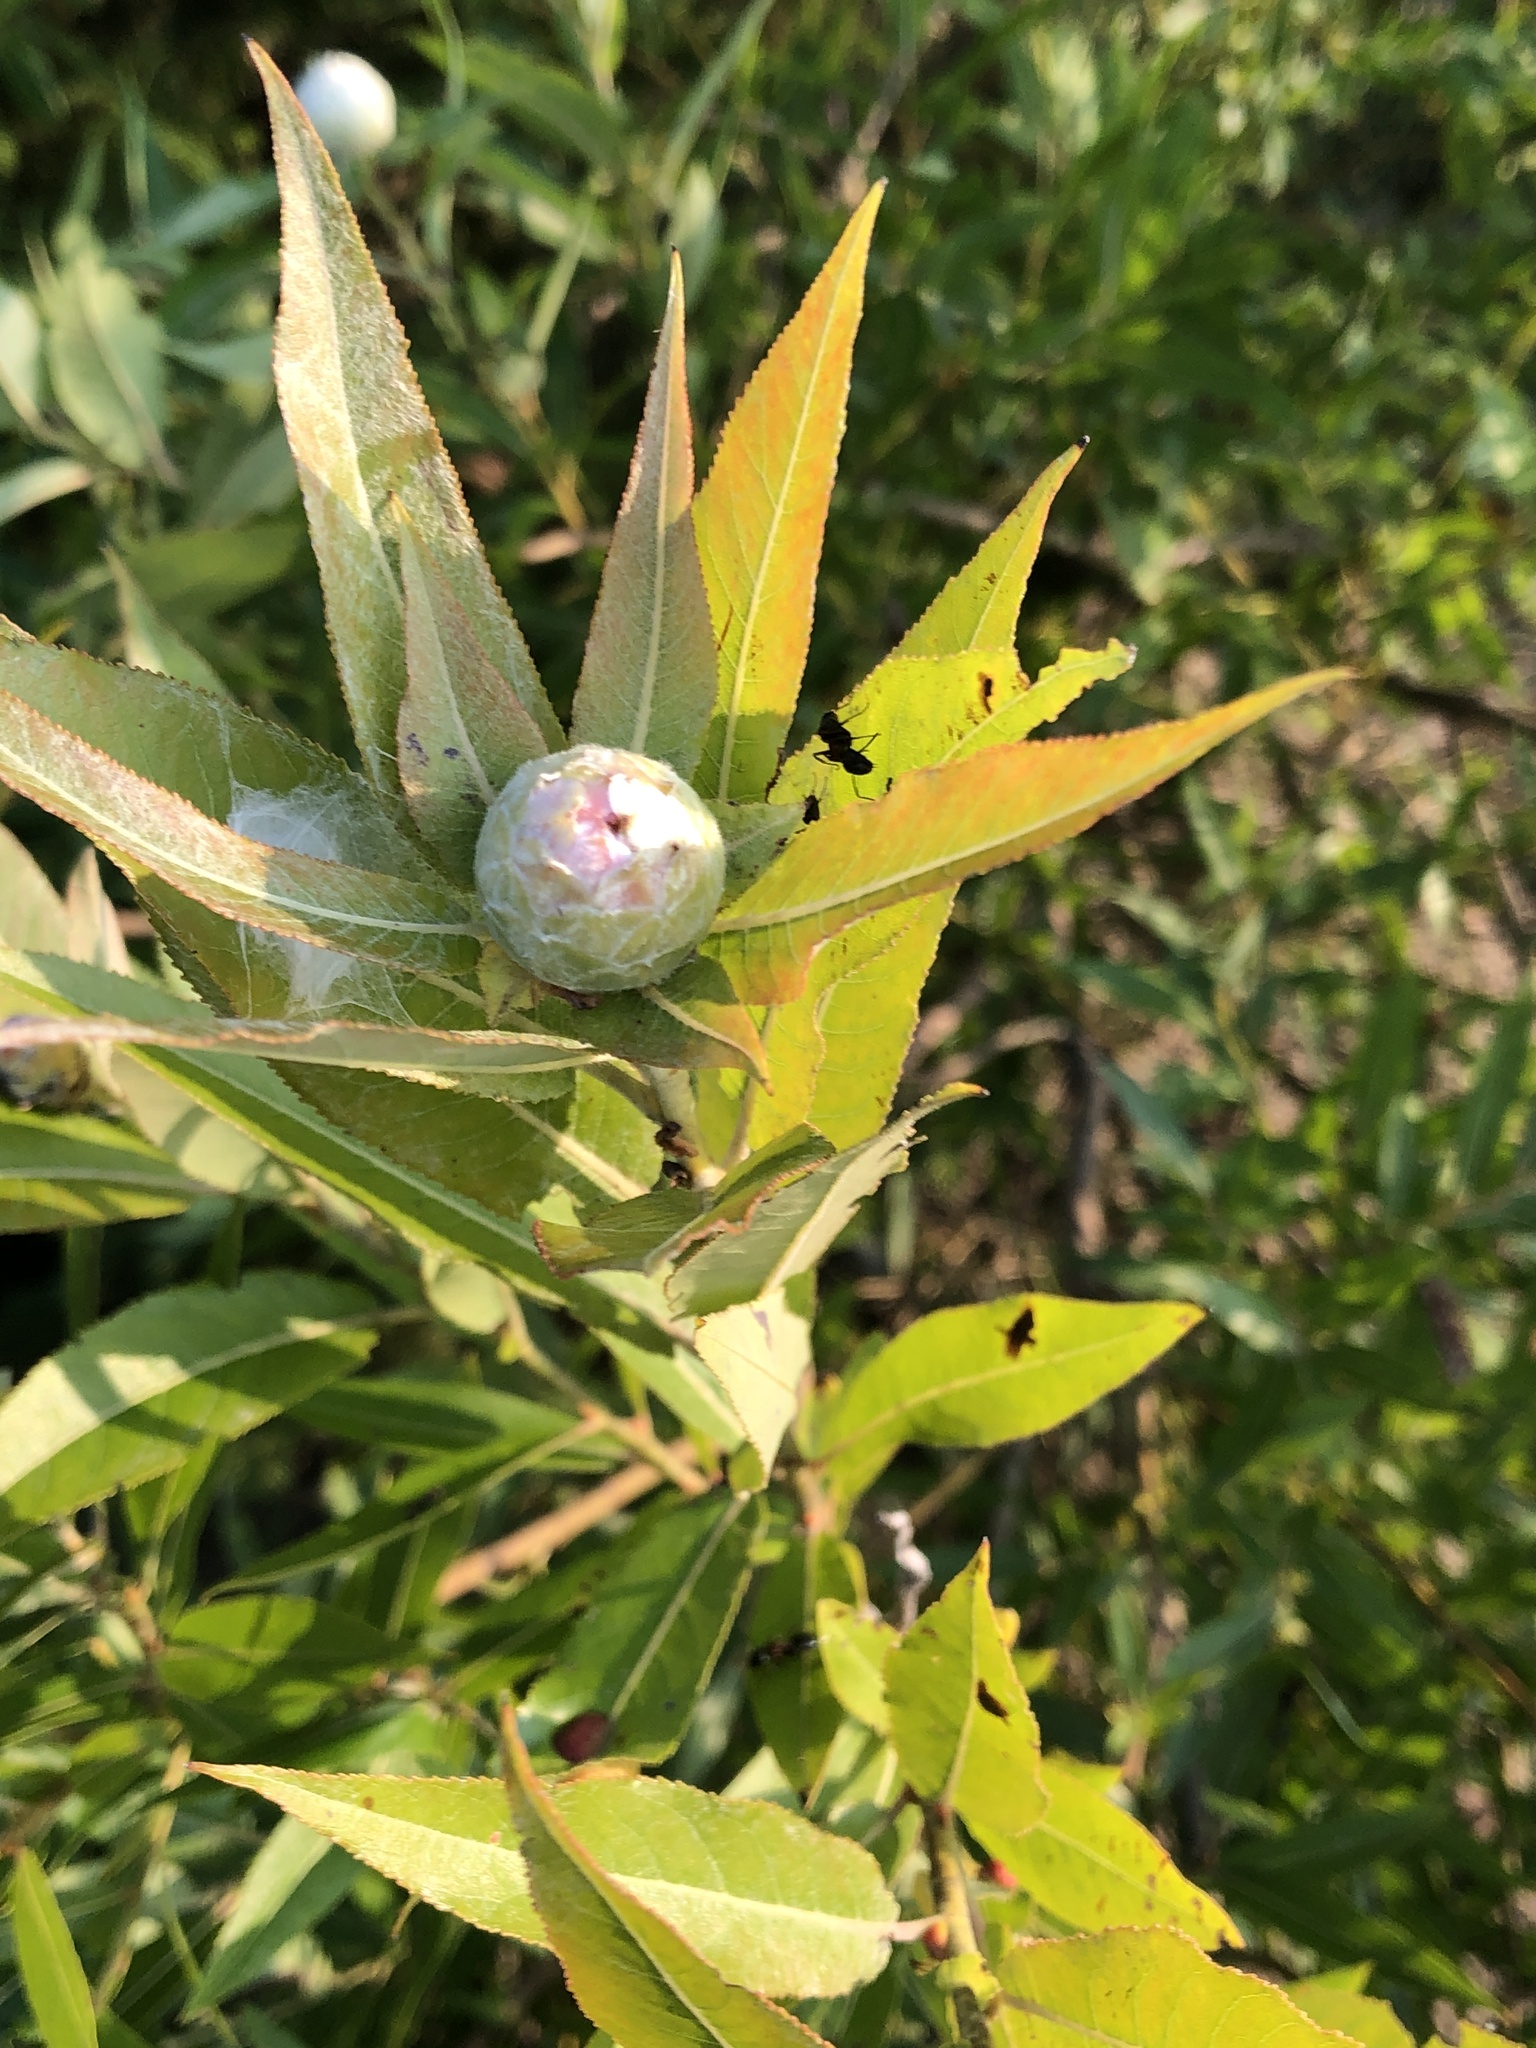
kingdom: Animalia
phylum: Arthropoda
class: Insecta
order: Diptera
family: Cecidomyiidae
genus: Rabdophaga
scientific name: Rabdophaga strobiloides
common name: Willow pinecone gall midge
